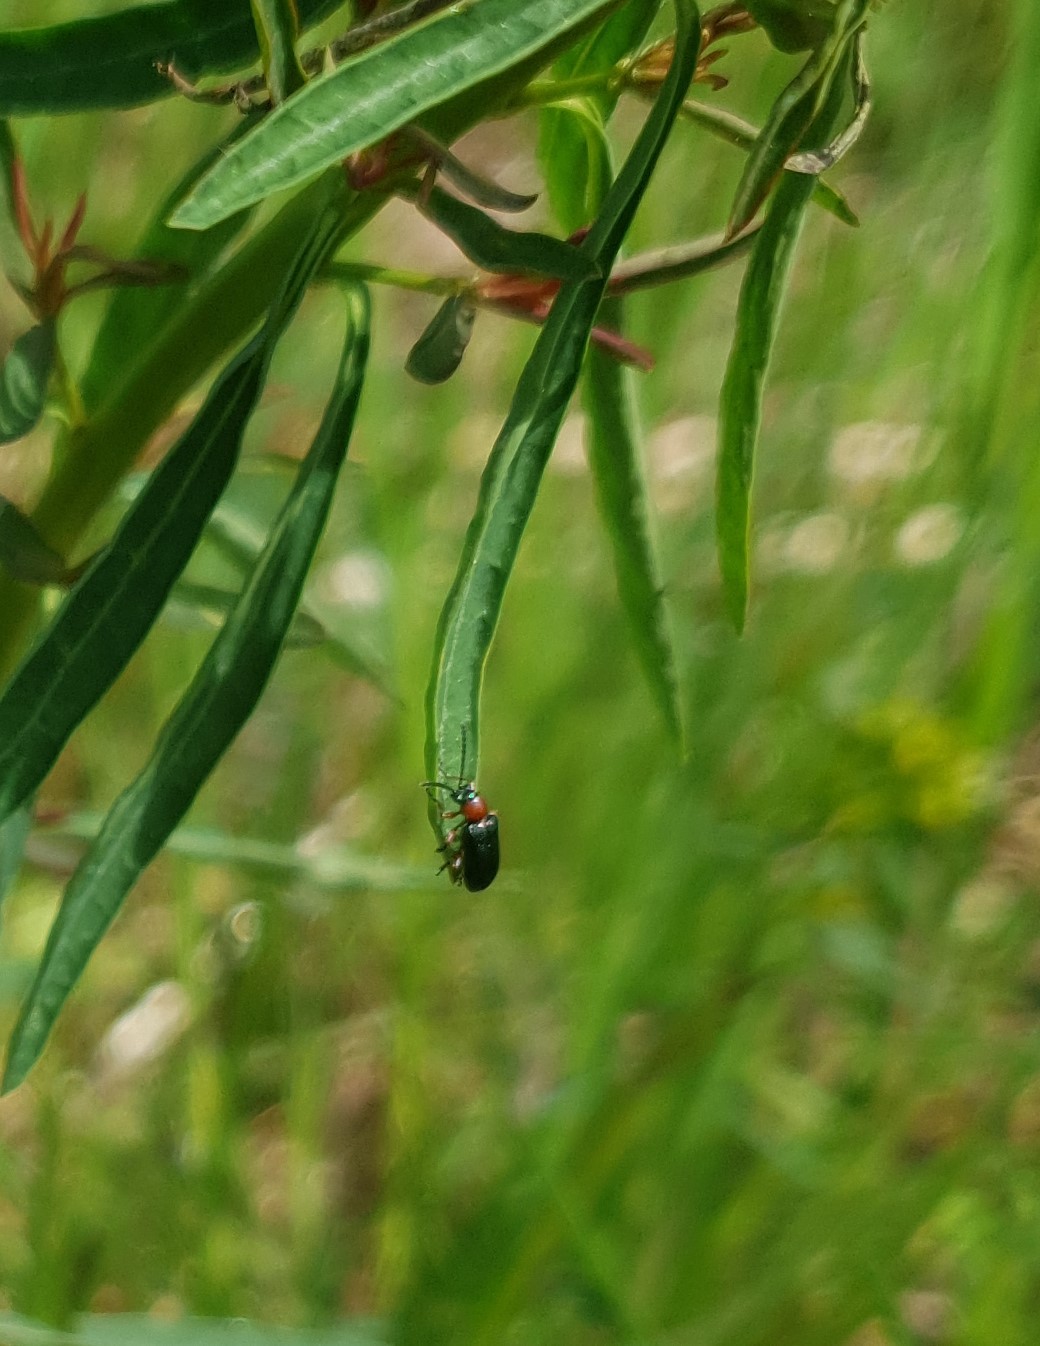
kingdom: Animalia
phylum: Arthropoda
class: Insecta
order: Coleoptera
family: Chrysomelidae
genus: Oulema
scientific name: Oulema
